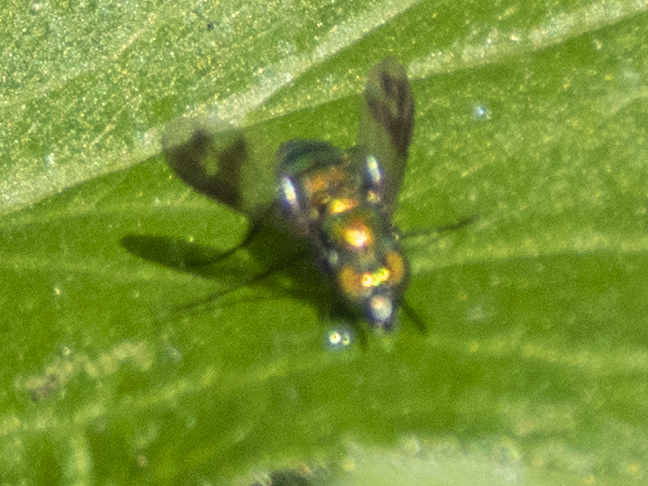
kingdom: Animalia
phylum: Arthropoda
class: Insecta
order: Diptera
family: Dolichopodidae
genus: Condylostylus
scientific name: Condylostylus patibulatus
